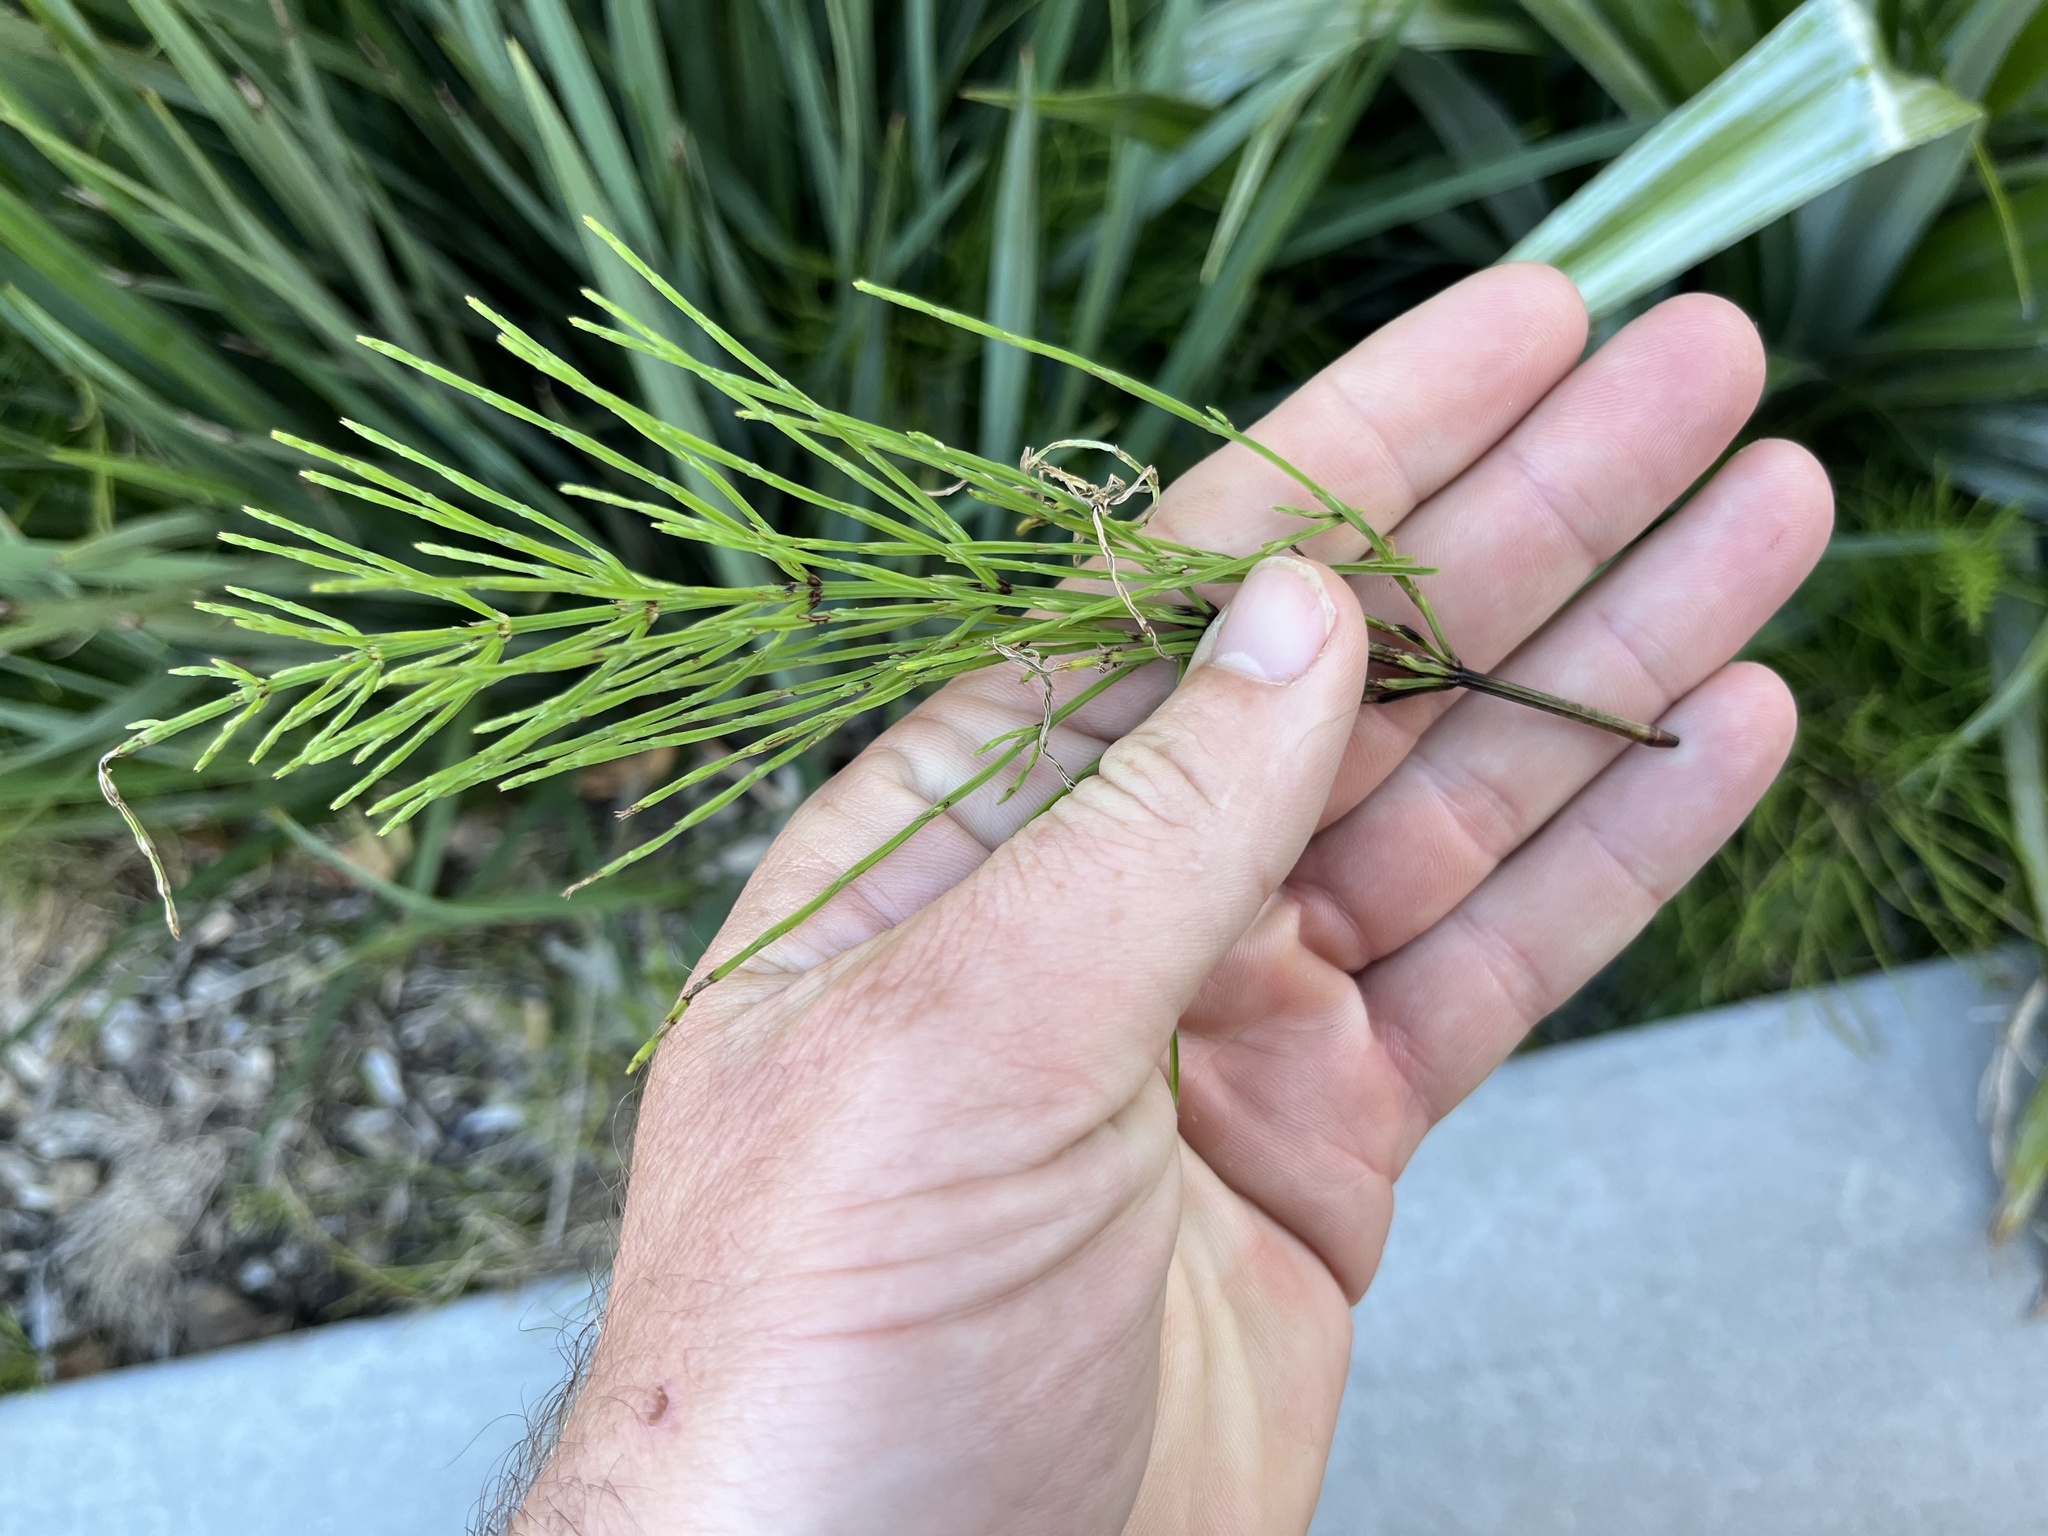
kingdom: Plantae
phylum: Tracheophyta
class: Polypodiopsida
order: Equisetales
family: Equisetaceae
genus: Equisetum
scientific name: Equisetum arvense
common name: Field horsetail
